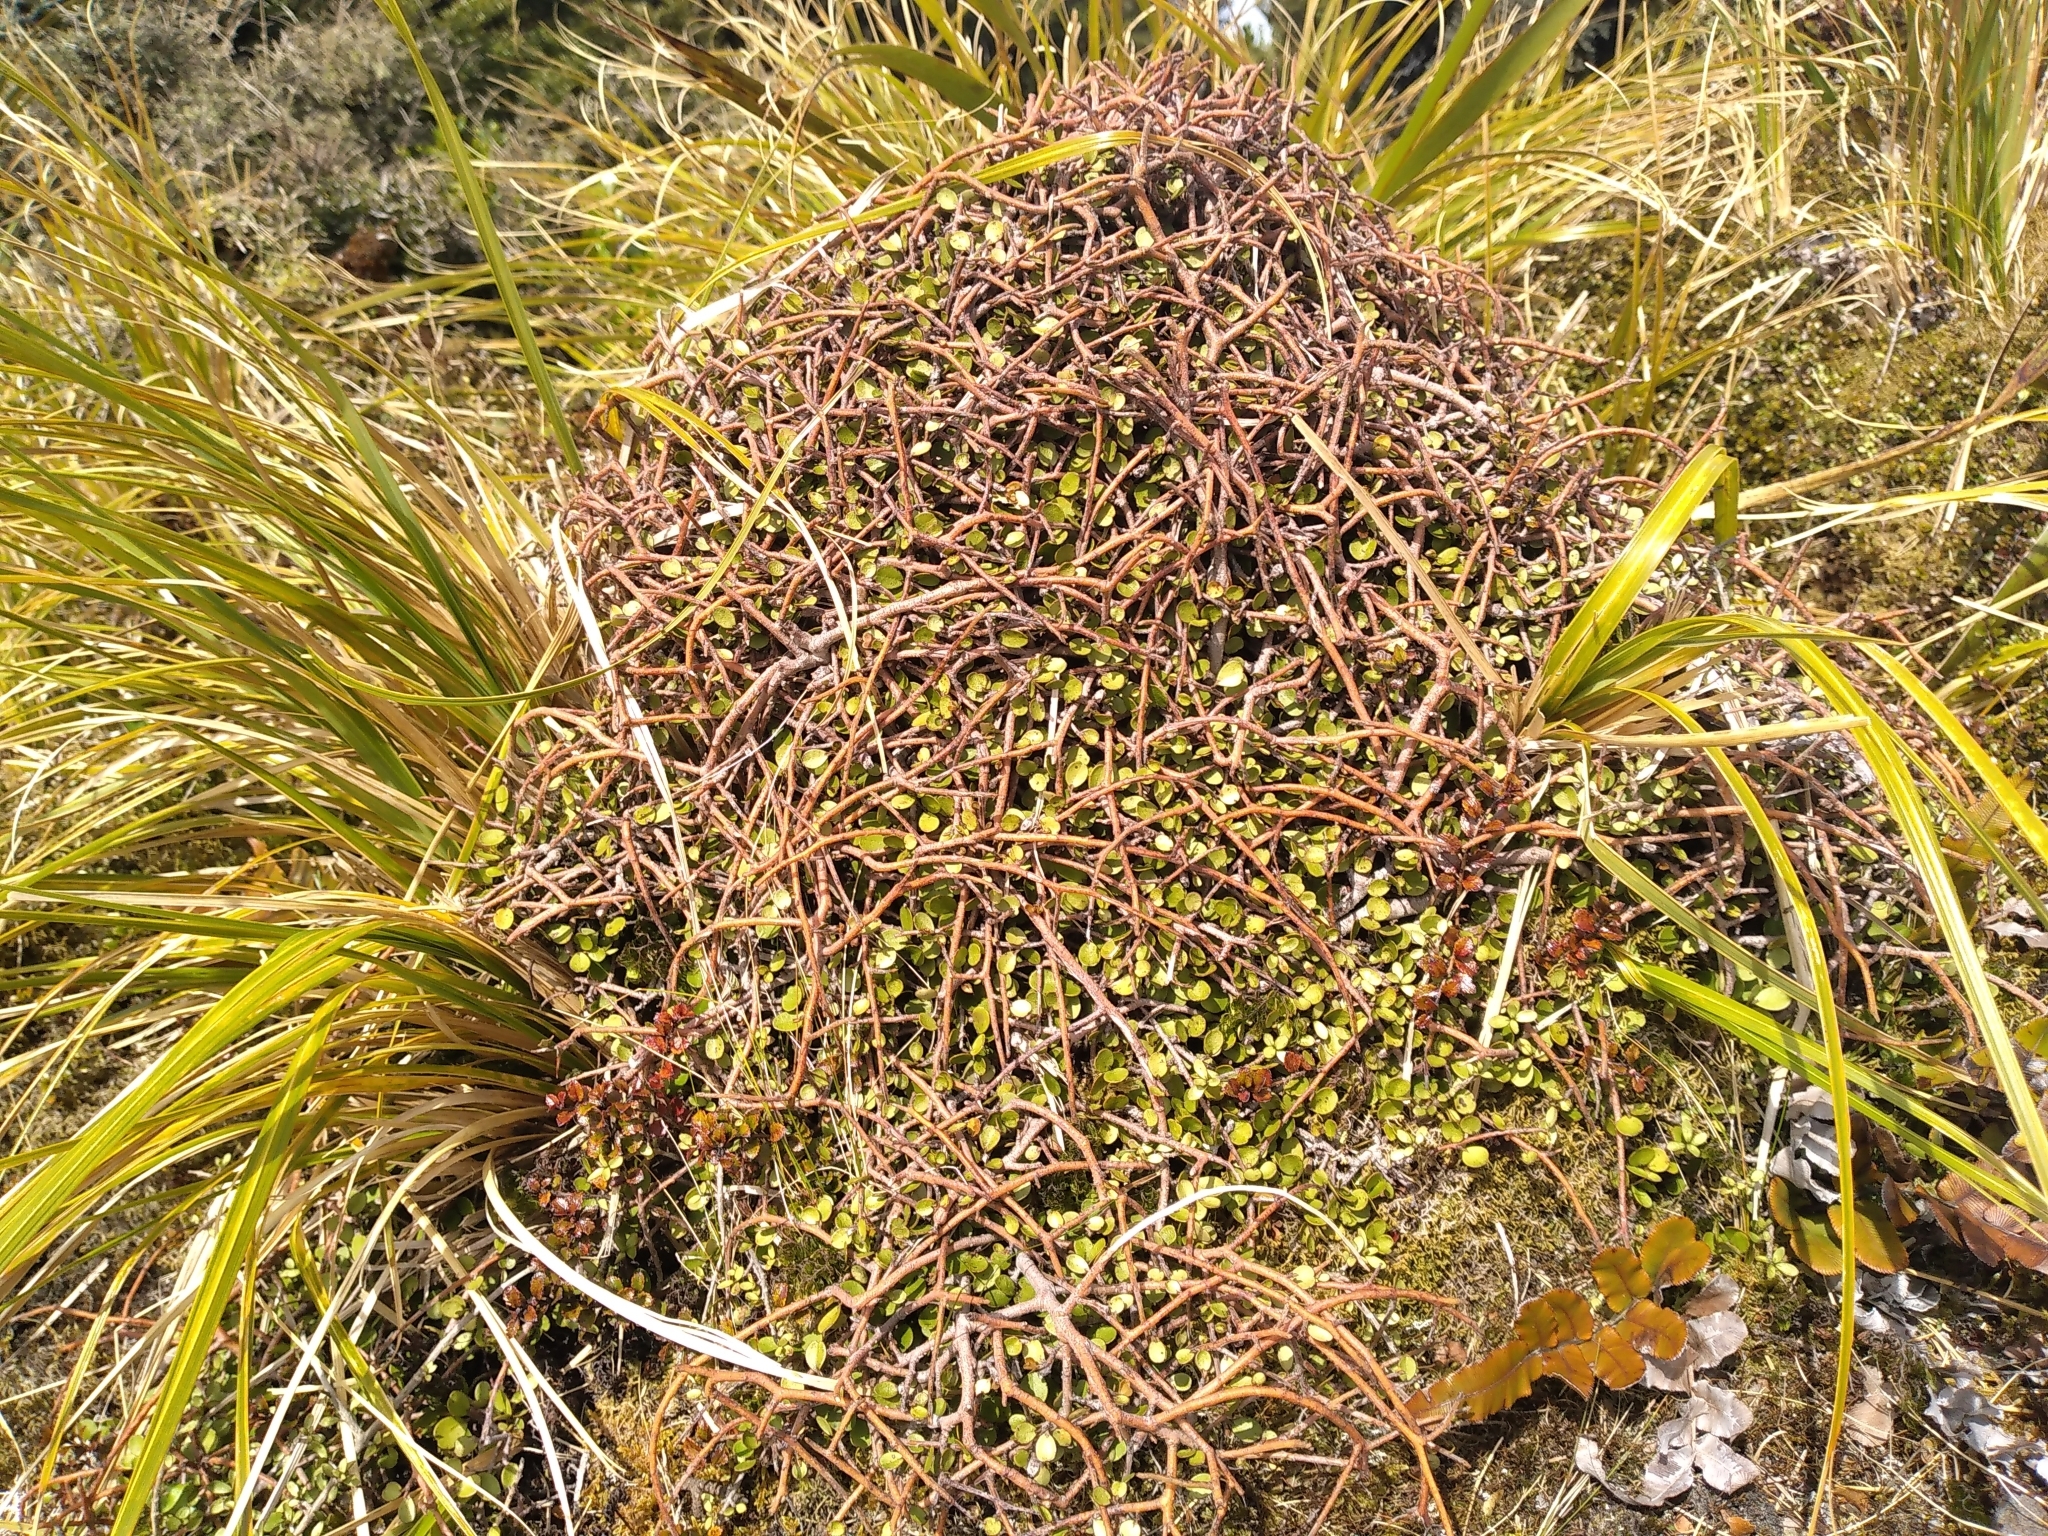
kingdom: Plantae
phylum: Tracheophyta
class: Magnoliopsida
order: Ericales
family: Primulaceae
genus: Myrsine
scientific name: Myrsine divaricata
